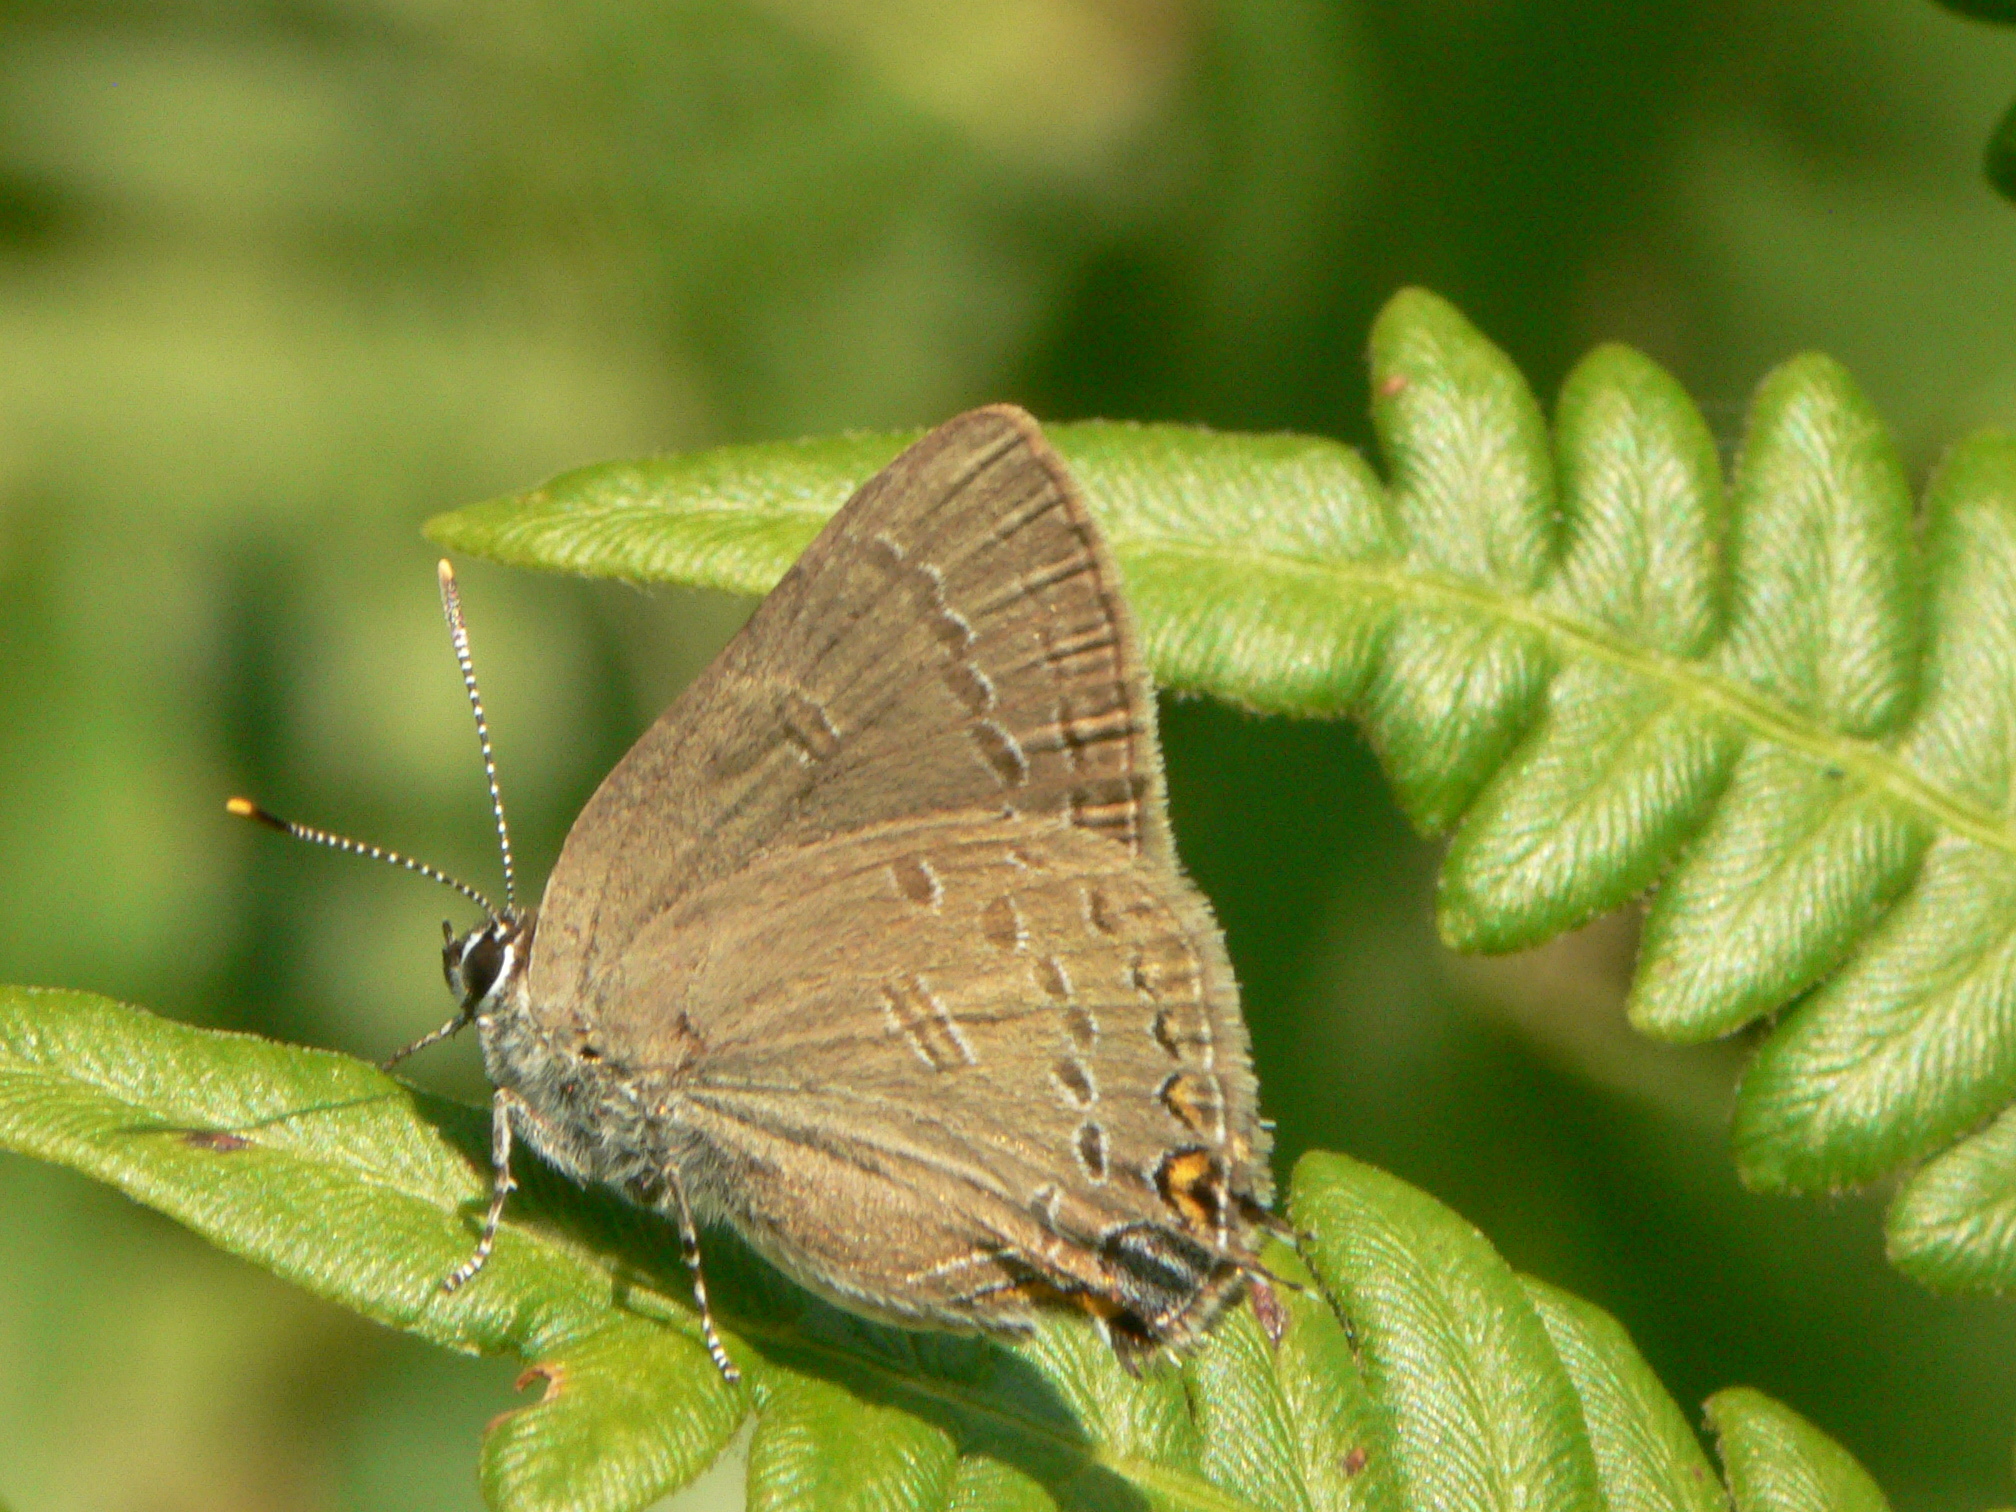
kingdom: Animalia
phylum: Arthropoda
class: Insecta
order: Lepidoptera
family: Lycaenidae
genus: Satyrium
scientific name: Satyrium edwardsii
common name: Edwards' hairstreak
